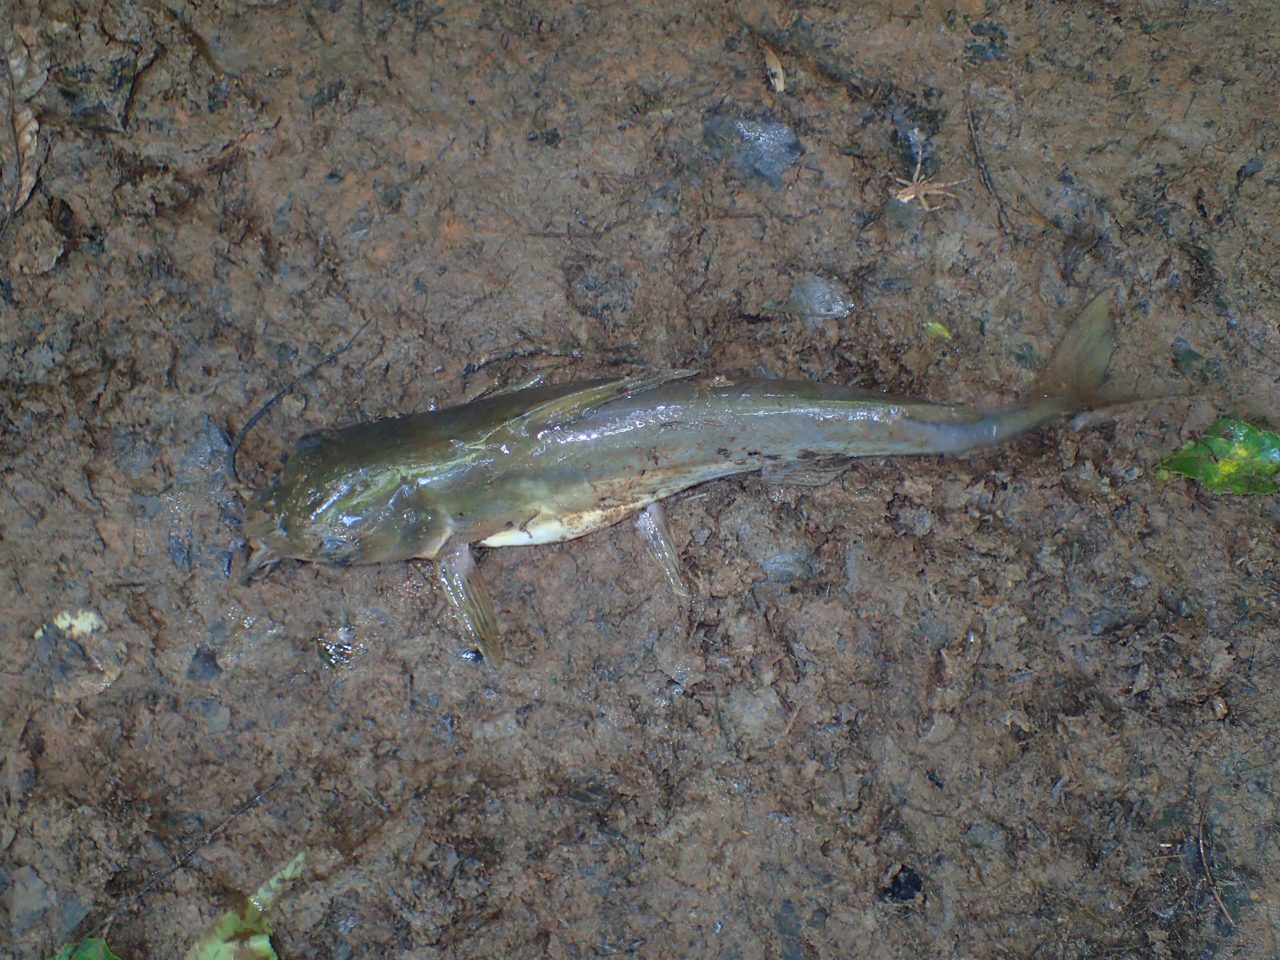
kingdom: Animalia
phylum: Chordata
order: Siluriformes
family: Ictaluridae
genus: Ictalurus
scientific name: Ictalurus punctatus
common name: Channel catfish
